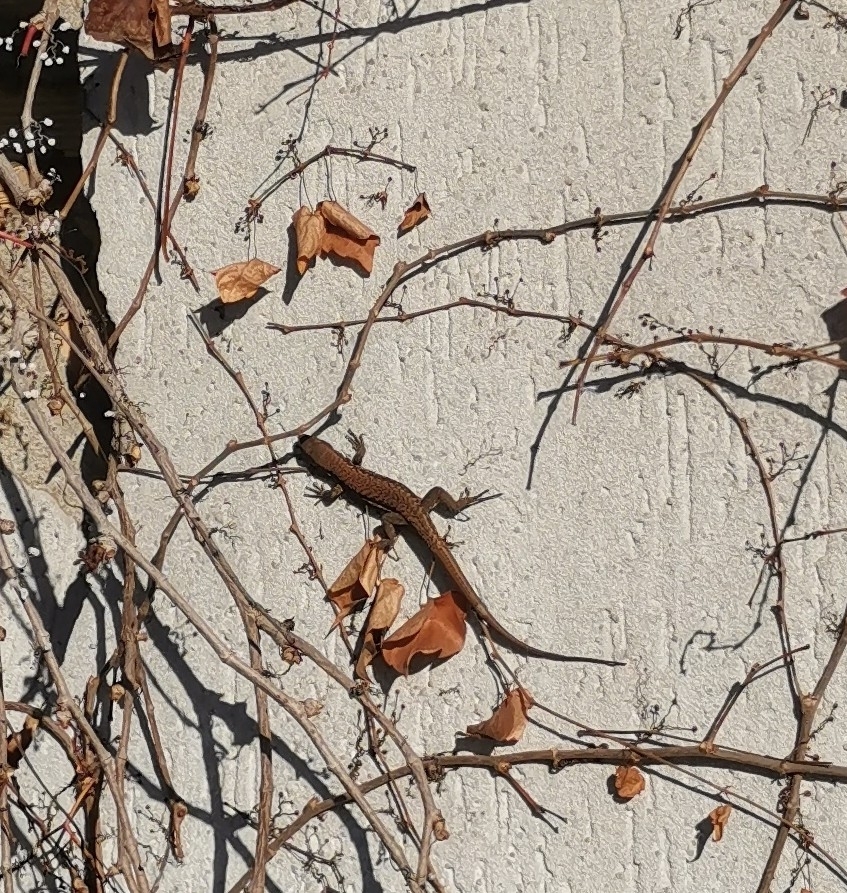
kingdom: Animalia
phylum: Chordata
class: Squamata
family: Lacertidae
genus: Podarcis
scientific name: Podarcis muralis
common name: Common wall lizard
